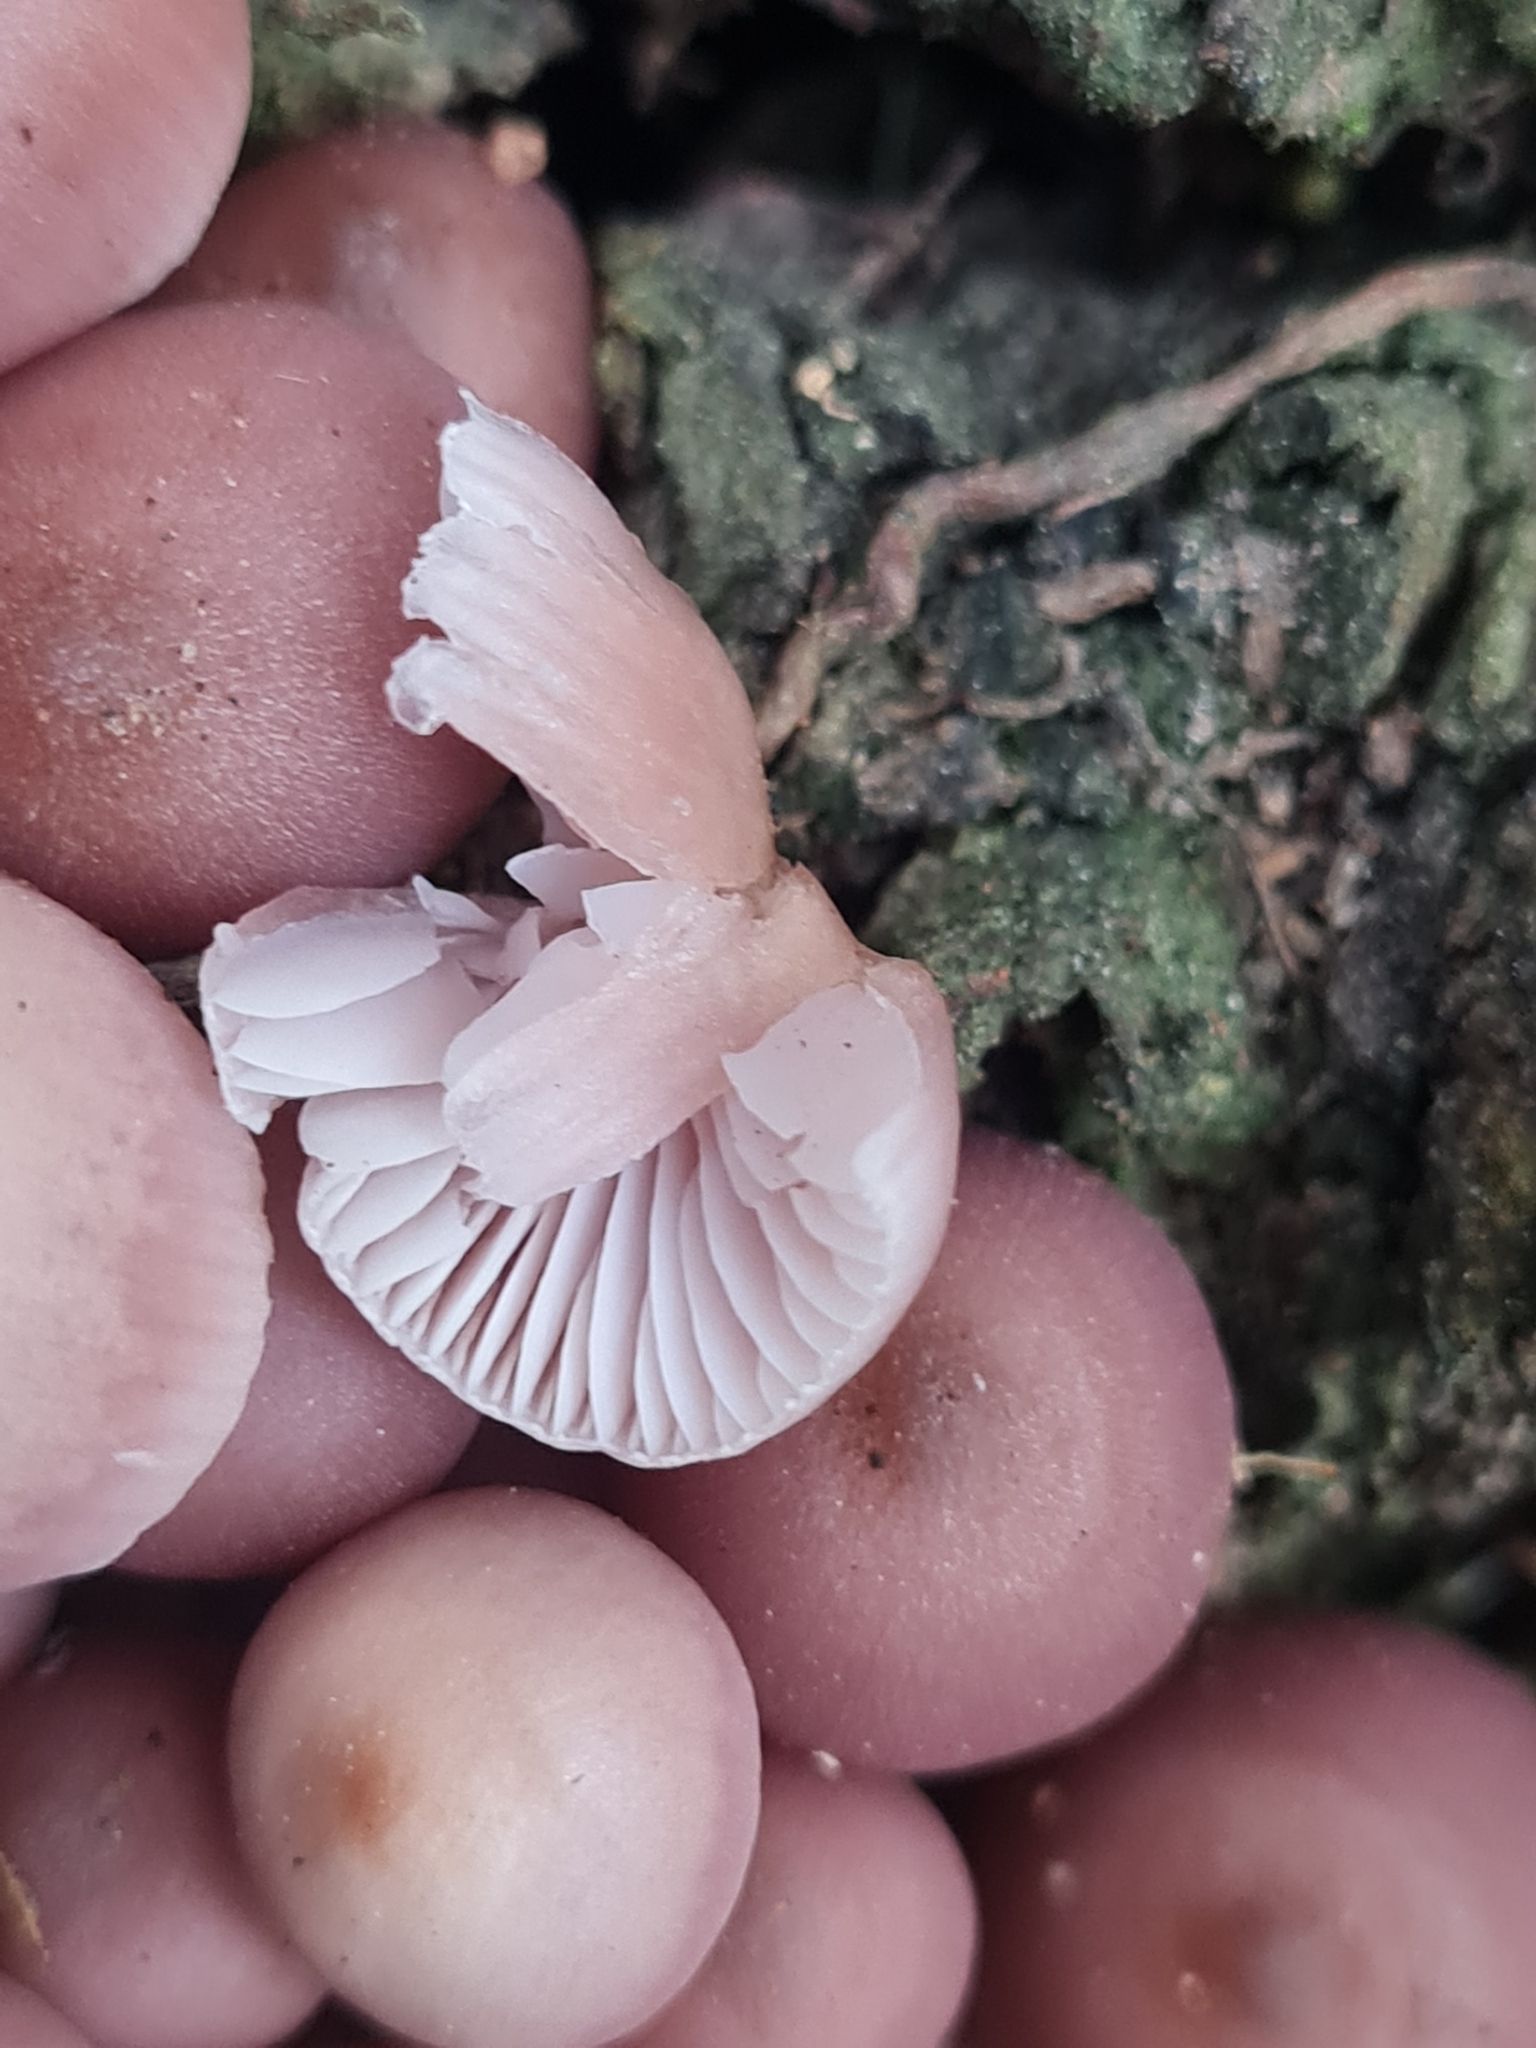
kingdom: Fungi
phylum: Basidiomycota
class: Agaricomycetes
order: Agaricales
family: Mycenaceae
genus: Mycena
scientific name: Mycena clarkeana
